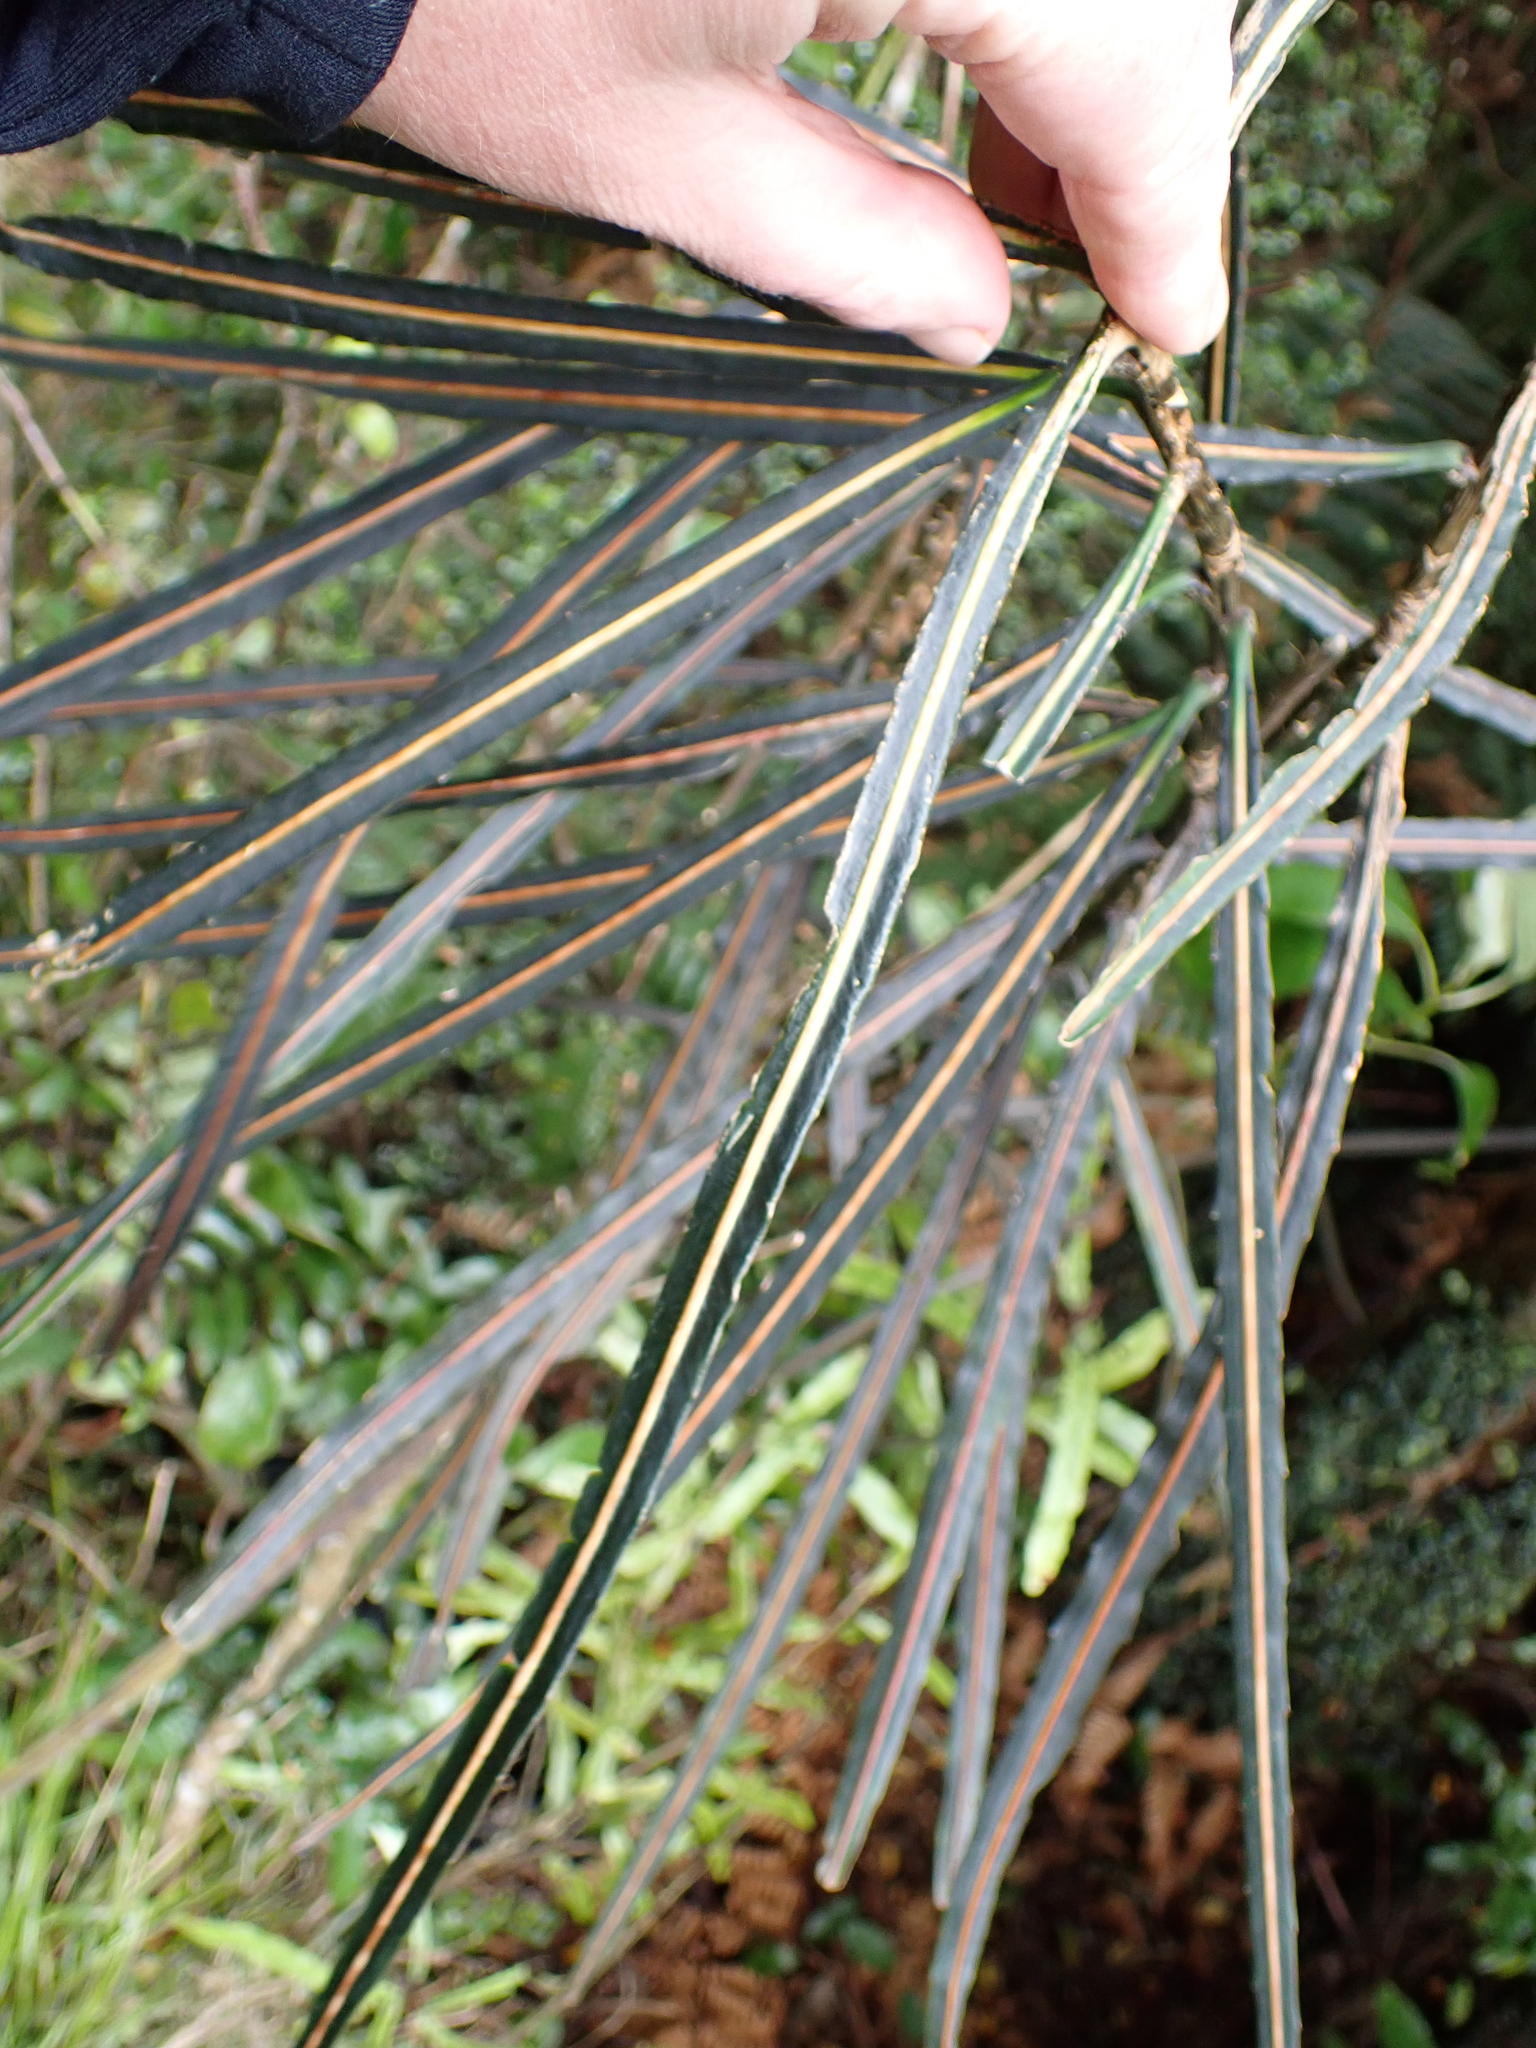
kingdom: Plantae
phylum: Tracheophyta
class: Magnoliopsida
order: Apiales
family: Araliaceae
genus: Pseudopanax
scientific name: Pseudopanax crassifolius
